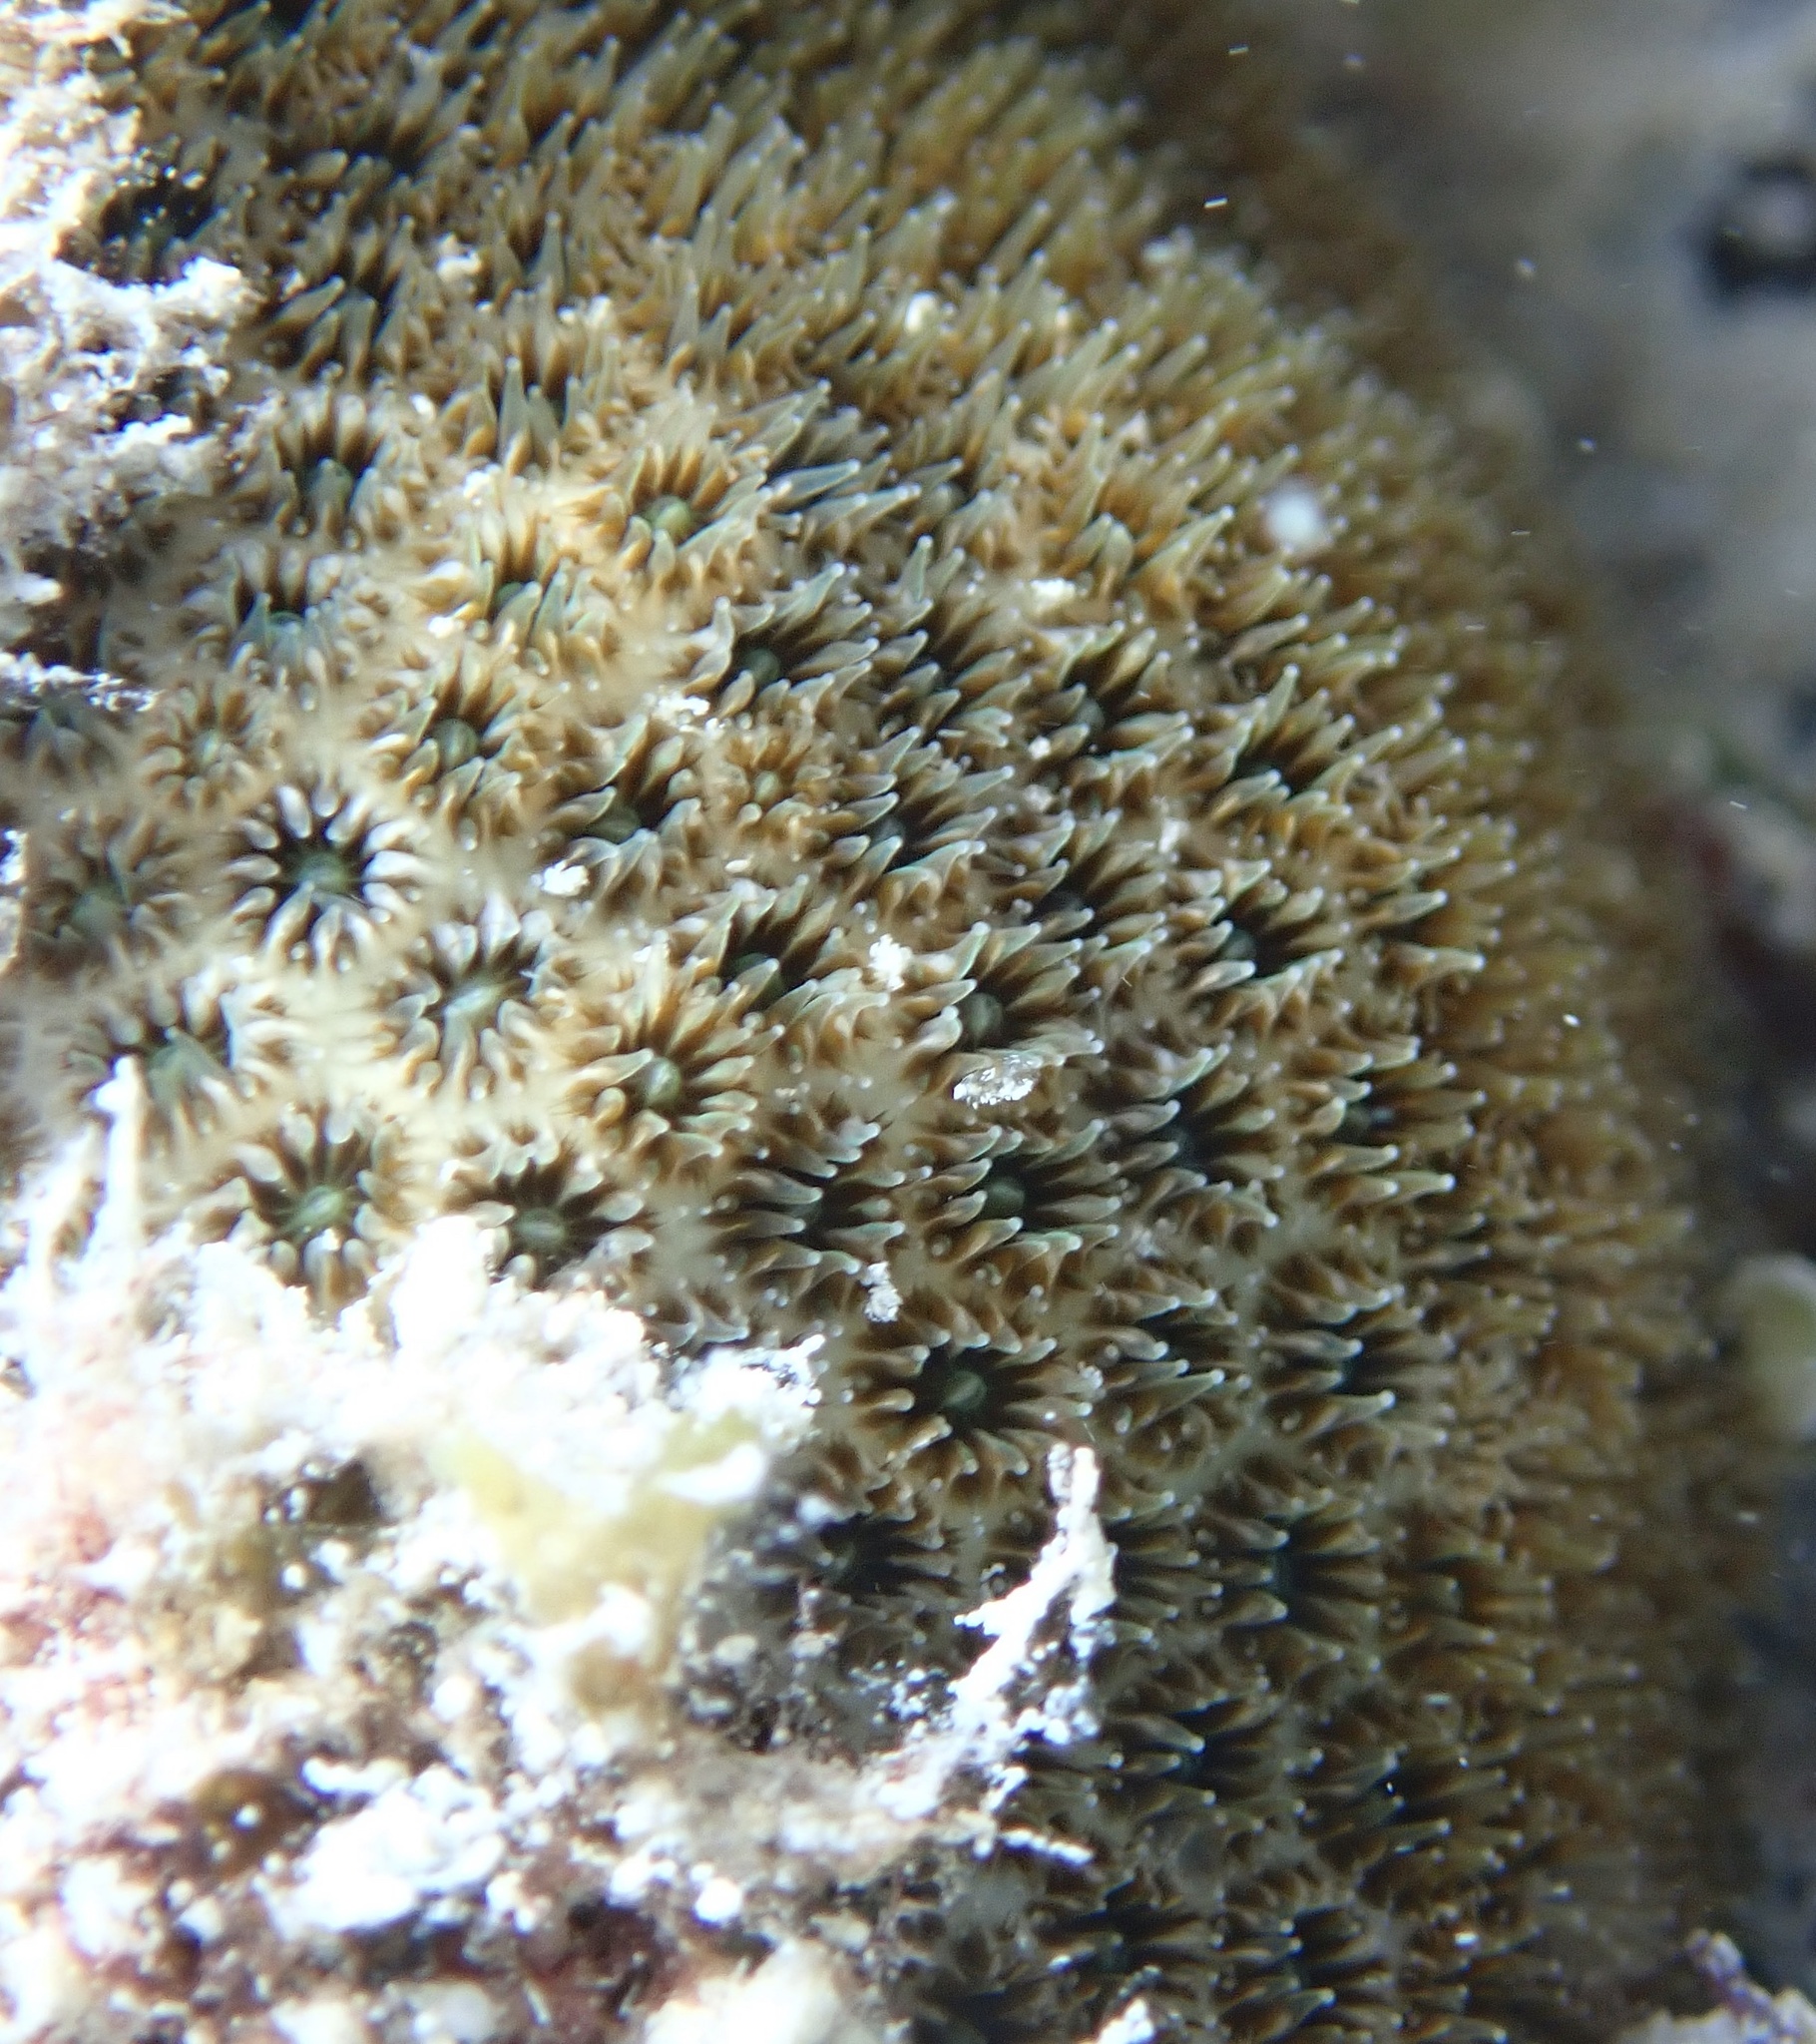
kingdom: Animalia
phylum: Cnidaria
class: Anthozoa
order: Scleractinia
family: Astrocoeniidae
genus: Stephanocoenia
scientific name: Stephanocoenia intersepta
